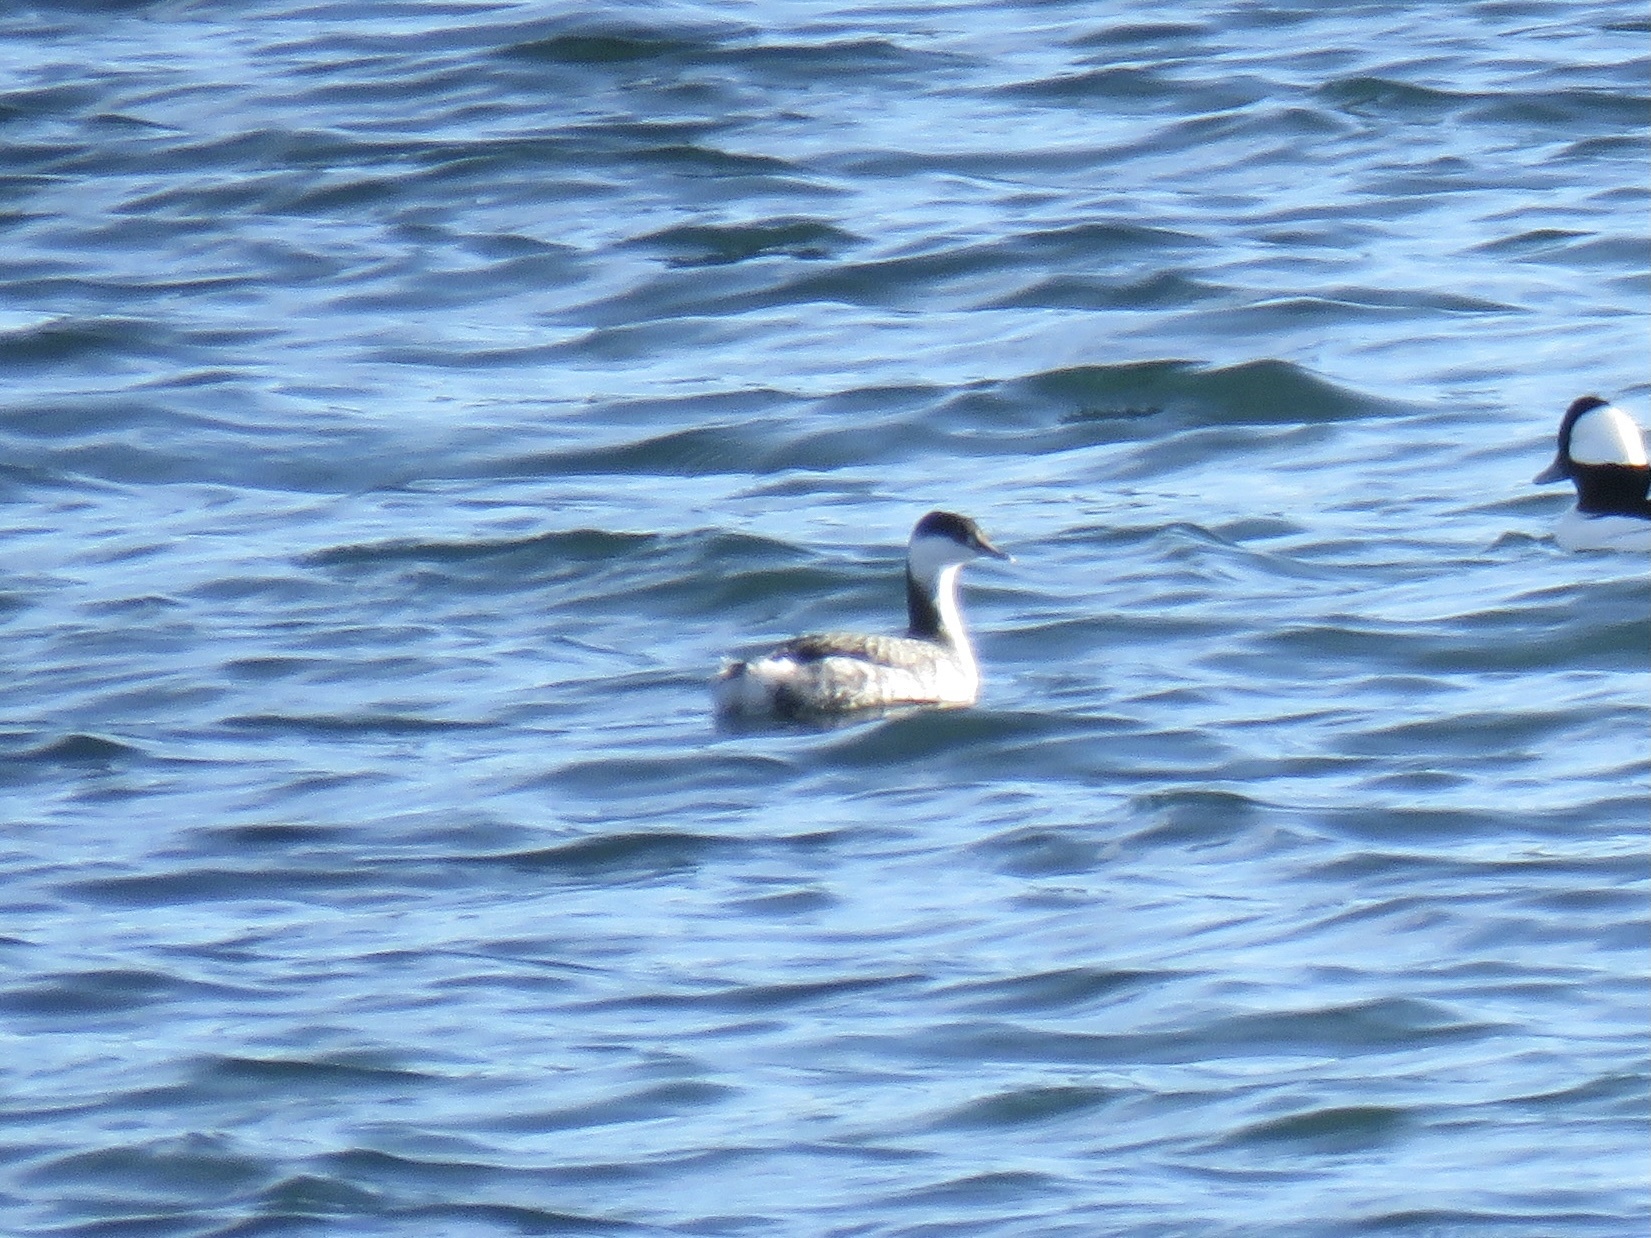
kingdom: Animalia
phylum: Chordata
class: Aves
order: Podicipediformes
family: Podicipedidae
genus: Podiceps
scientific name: Podiceps auritus
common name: Horned grebe
